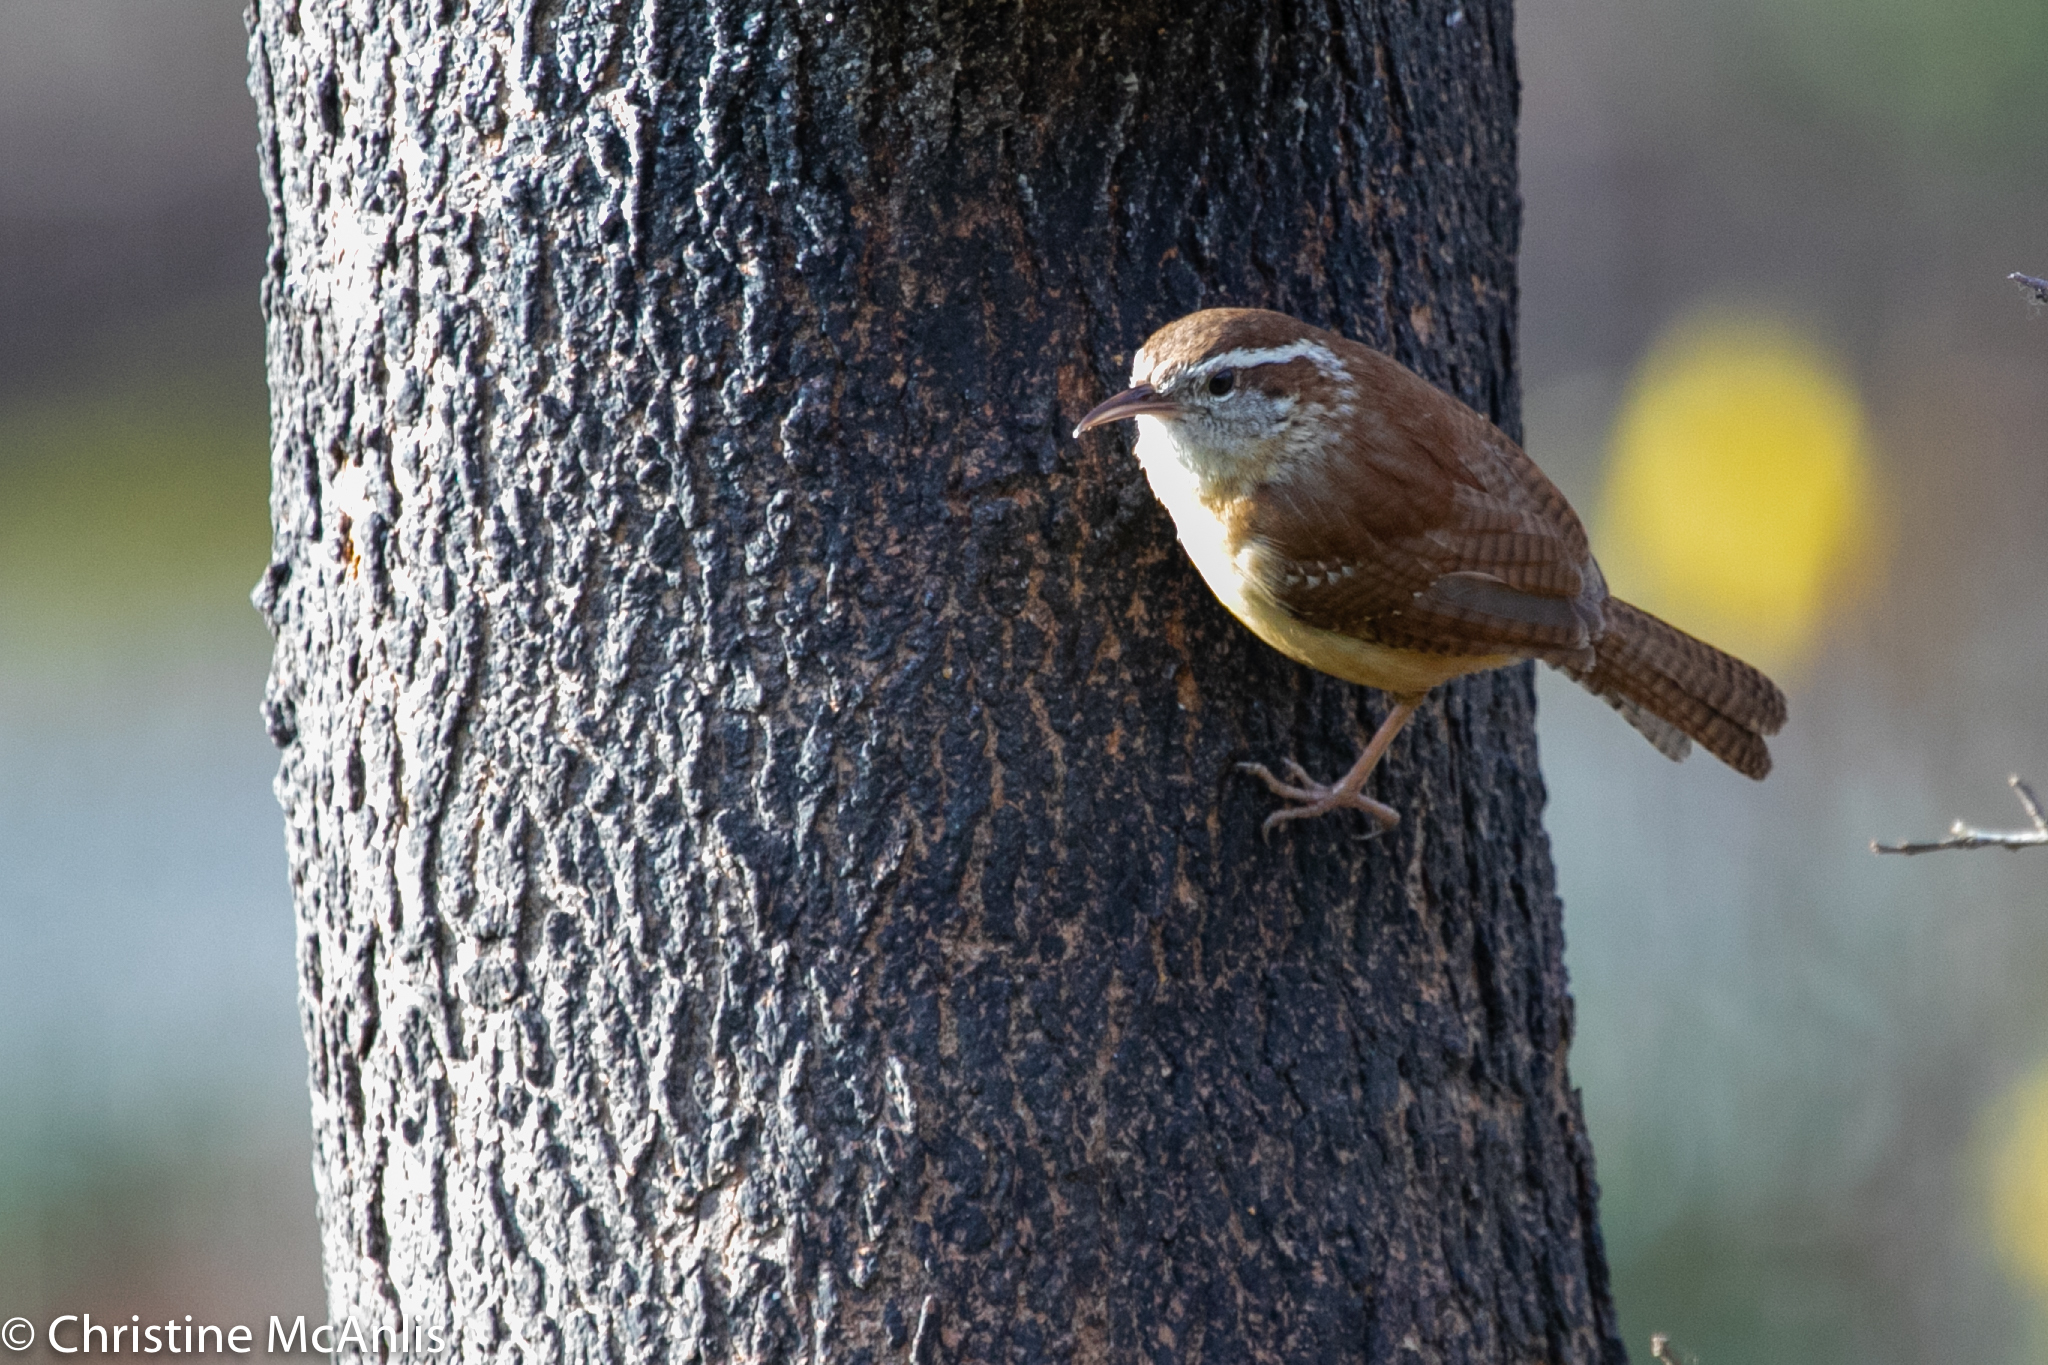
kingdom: Animalia
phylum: Chordata
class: Aves
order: Passeriformes
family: Troglodytidae
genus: Thryothorus
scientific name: Thryothorus ludovicianus
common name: Carolina wren
